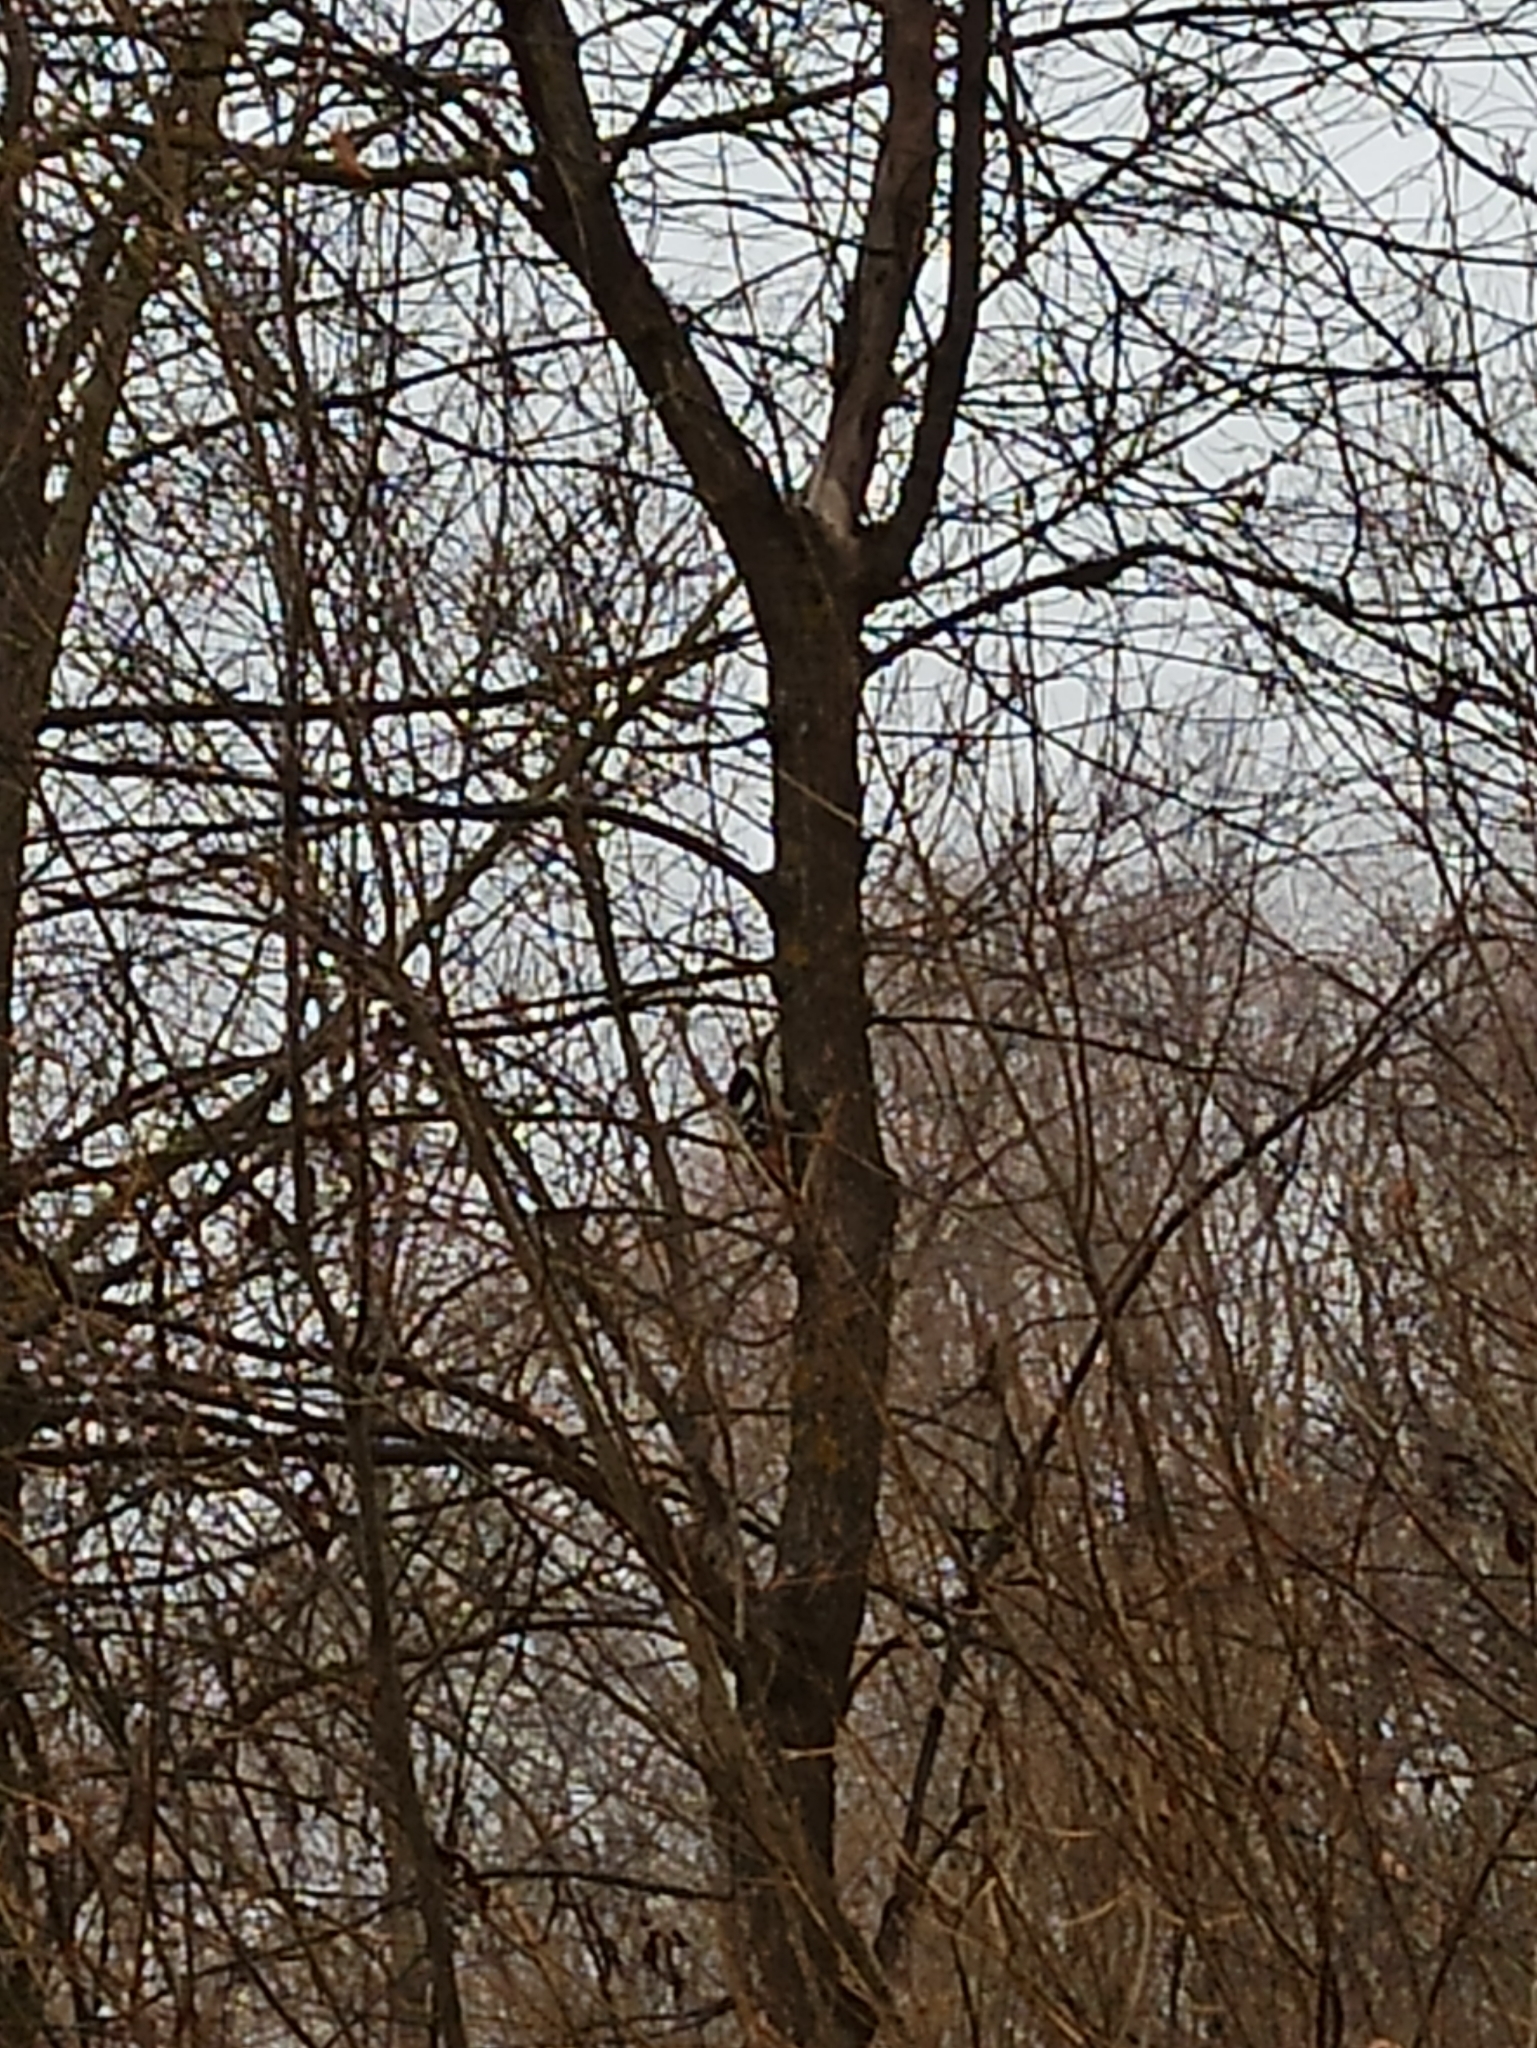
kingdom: Animalia
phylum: Chordata
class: Aves
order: Piciformes
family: Picidae
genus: Dendrocopos
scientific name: Dendrocopos major
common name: Great spotted woodpecker
